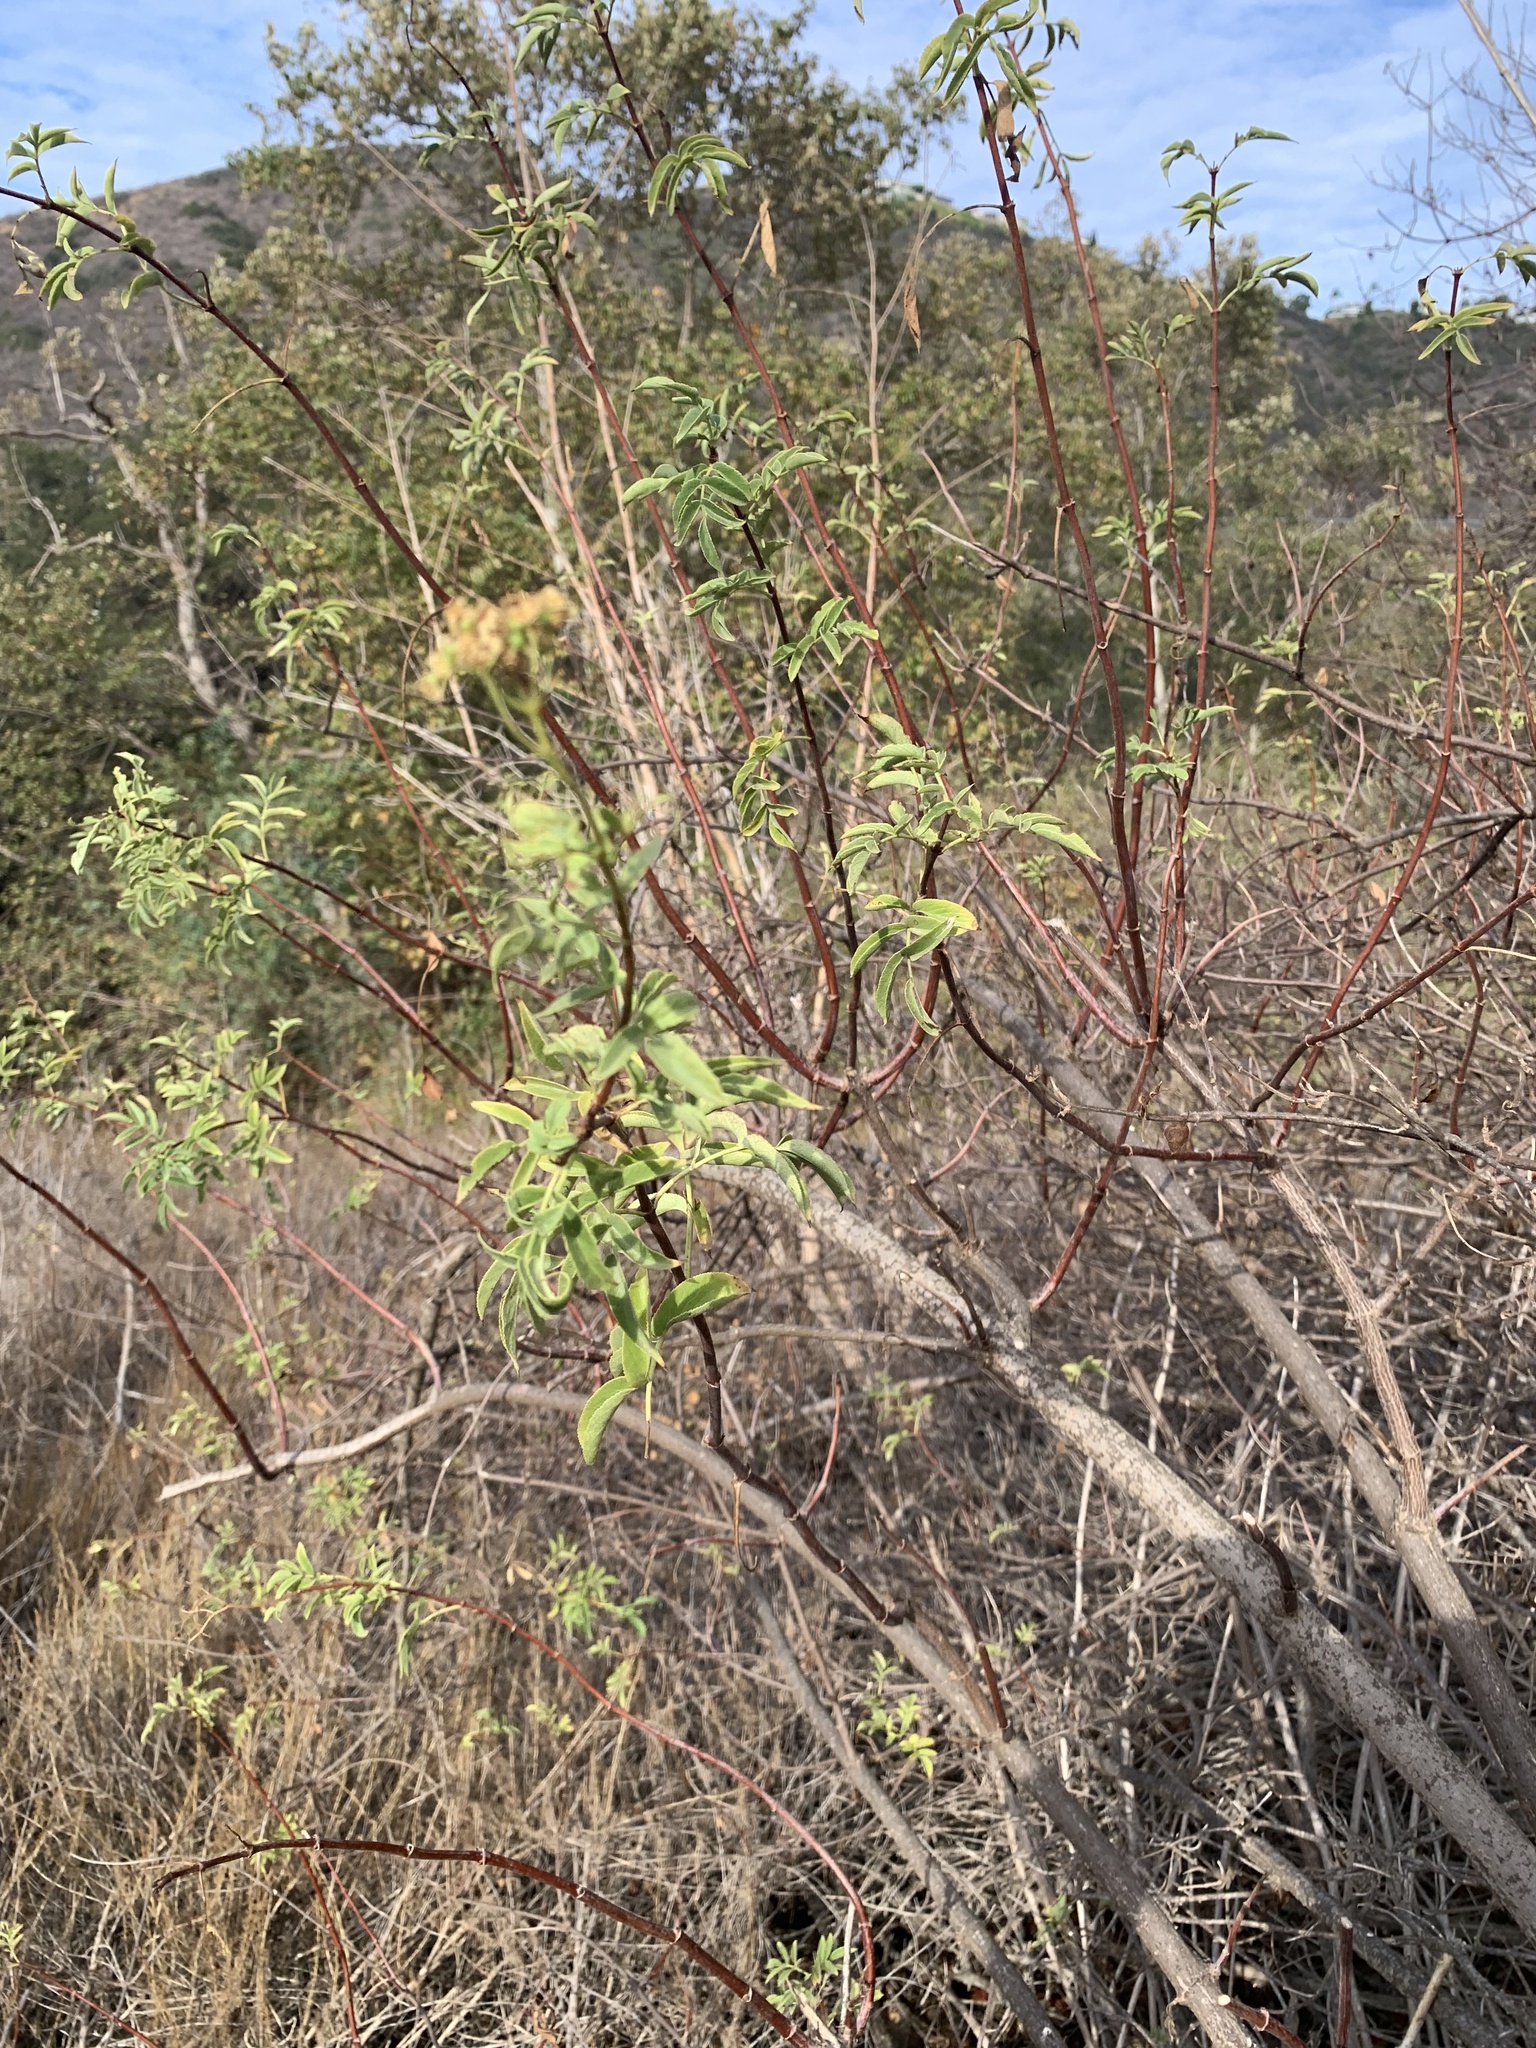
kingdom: Plantae
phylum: Tracheophyta
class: Magnoliopsida
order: Dipsacales
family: Viburnaceae
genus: Sambucus
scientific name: Sambucus cerulea
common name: Blue elder
